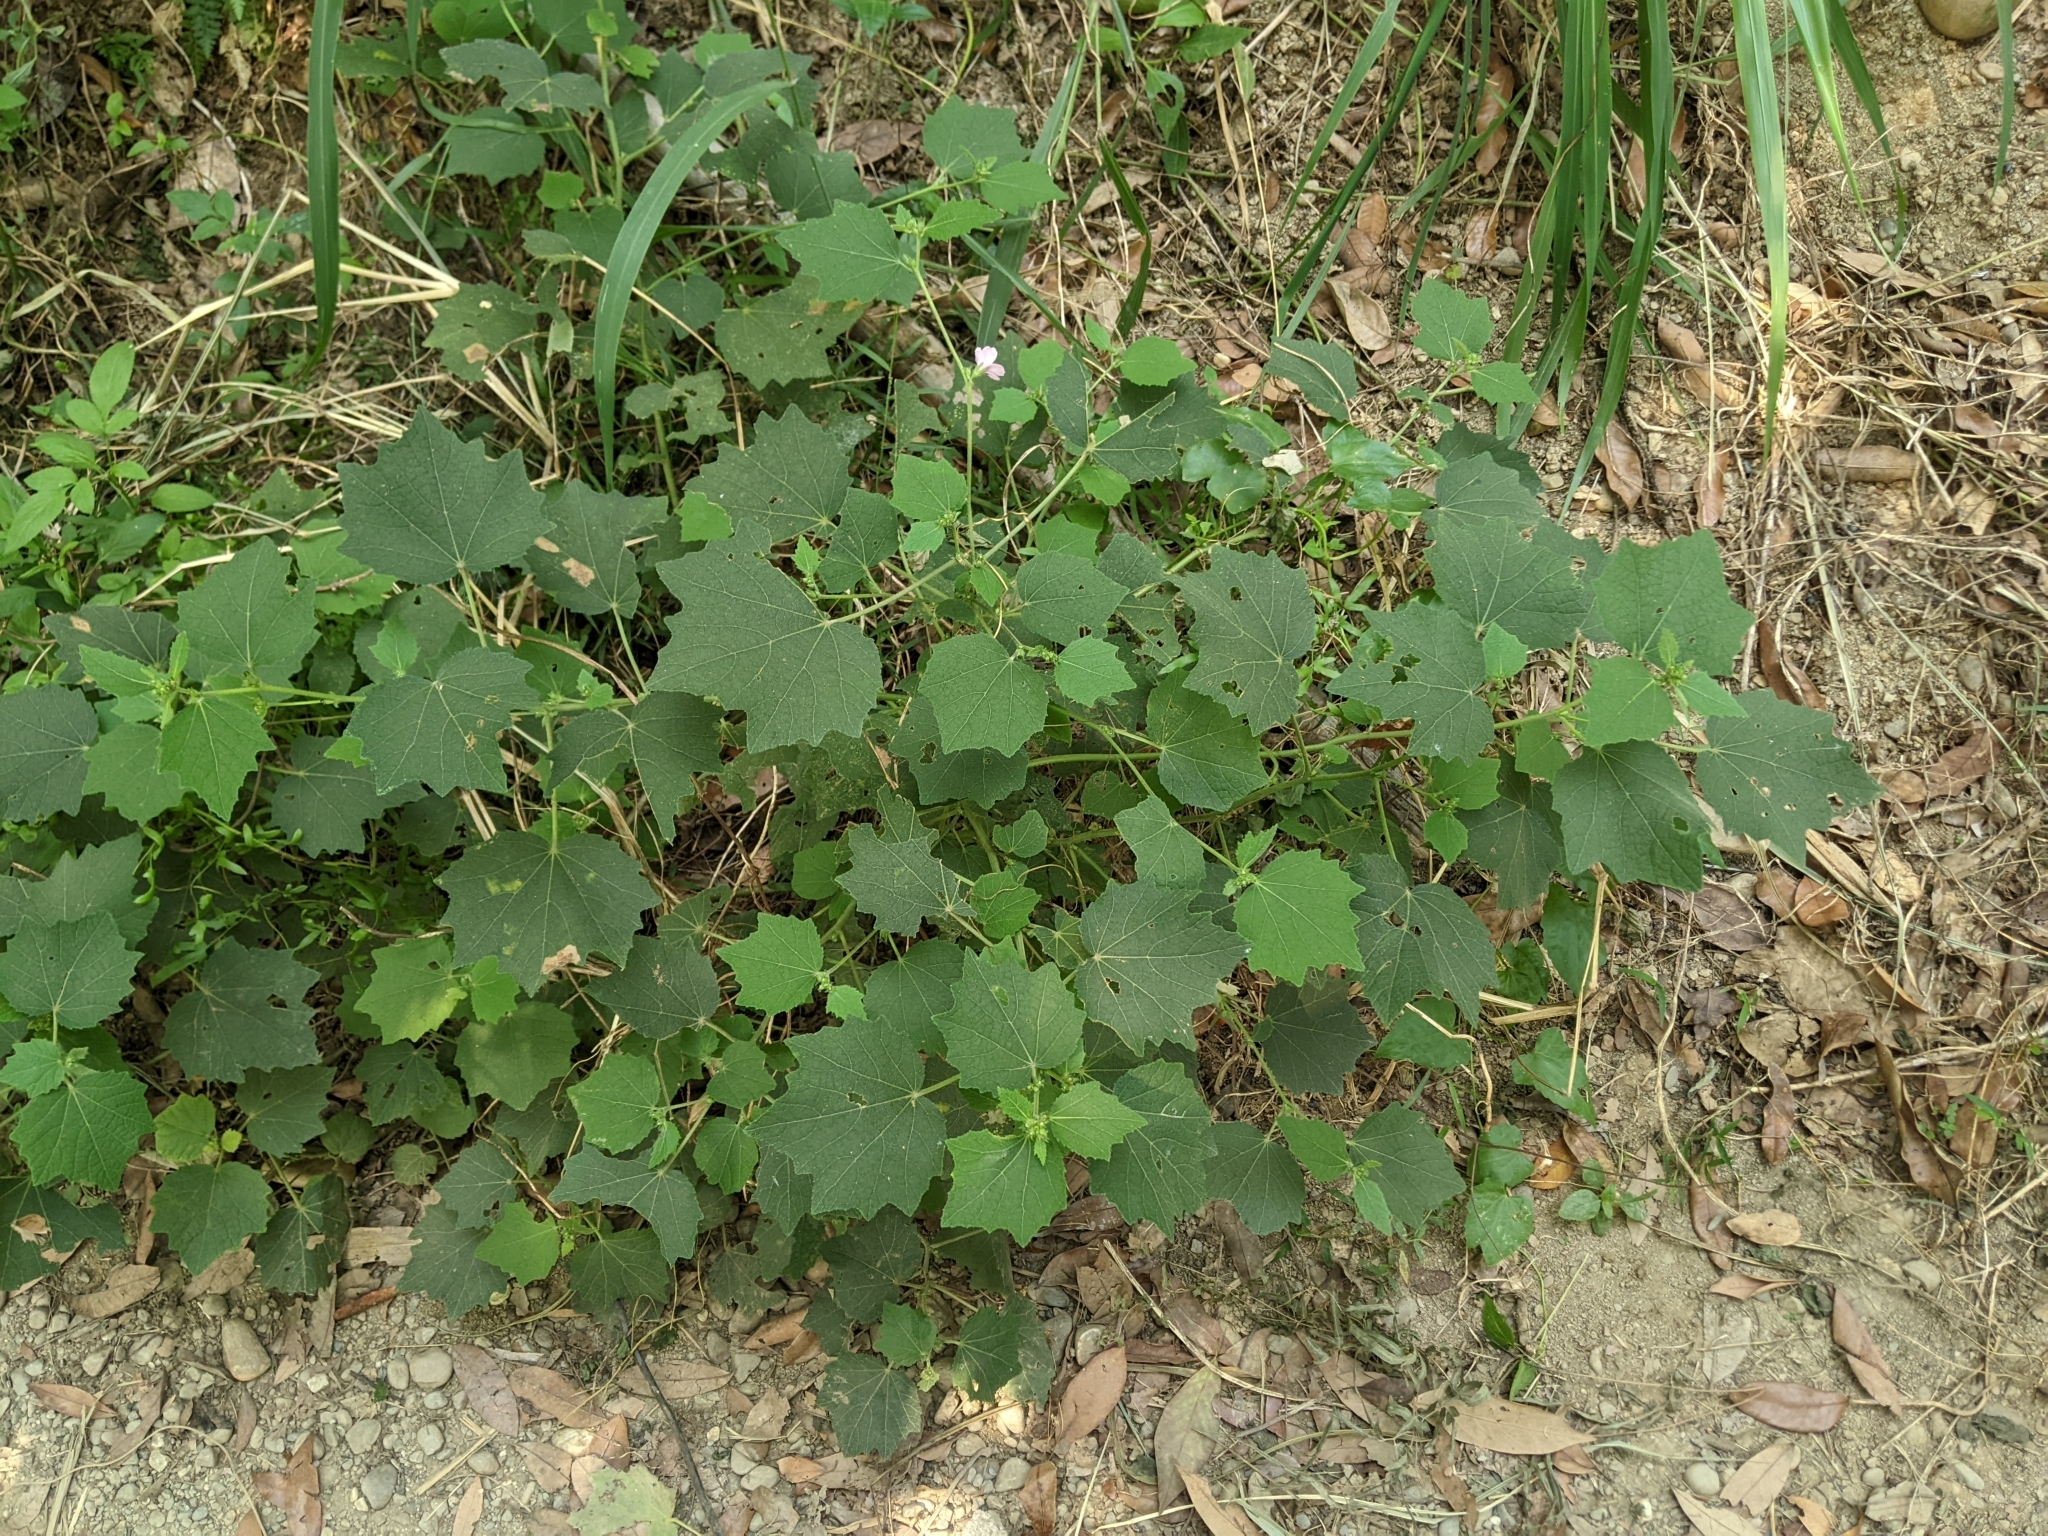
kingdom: Plantae
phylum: Tracheophyta
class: Magnoliopsida
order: Malvales
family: Malvaceae
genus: Urena
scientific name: Urena lobata
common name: Caesarweed
